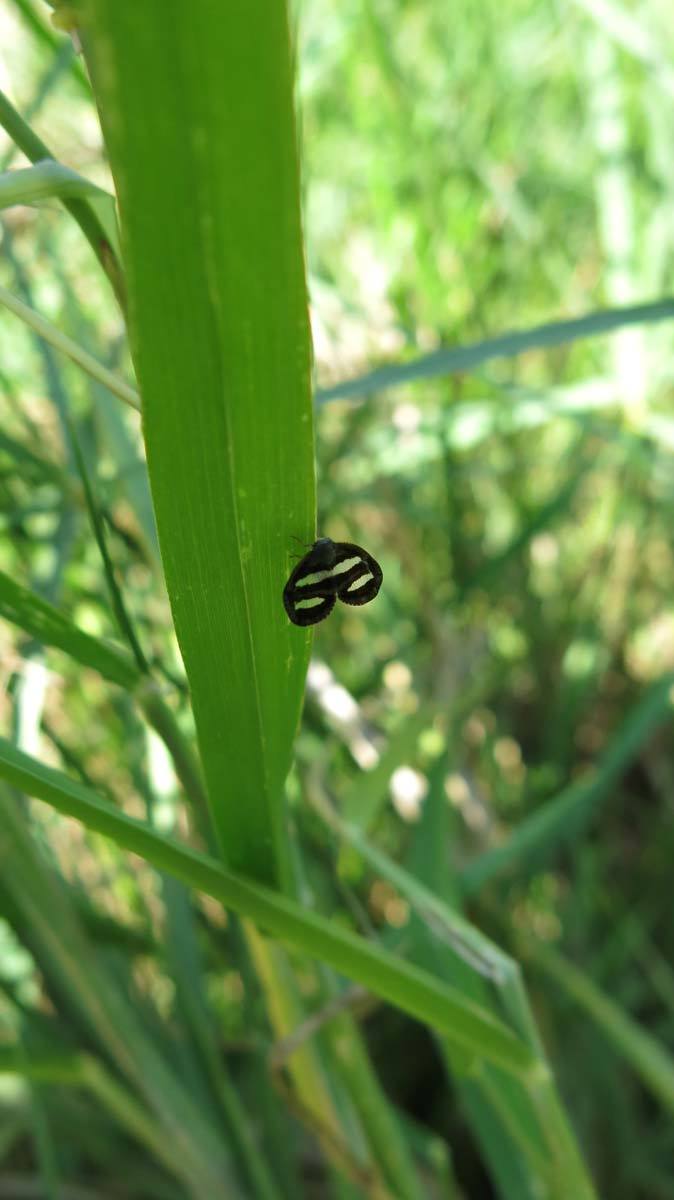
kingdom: Animalia
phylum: Arthropoda
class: Insecta
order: Hemiptera
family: Ricaniidae
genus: Mulvia
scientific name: Mulvia albizona
